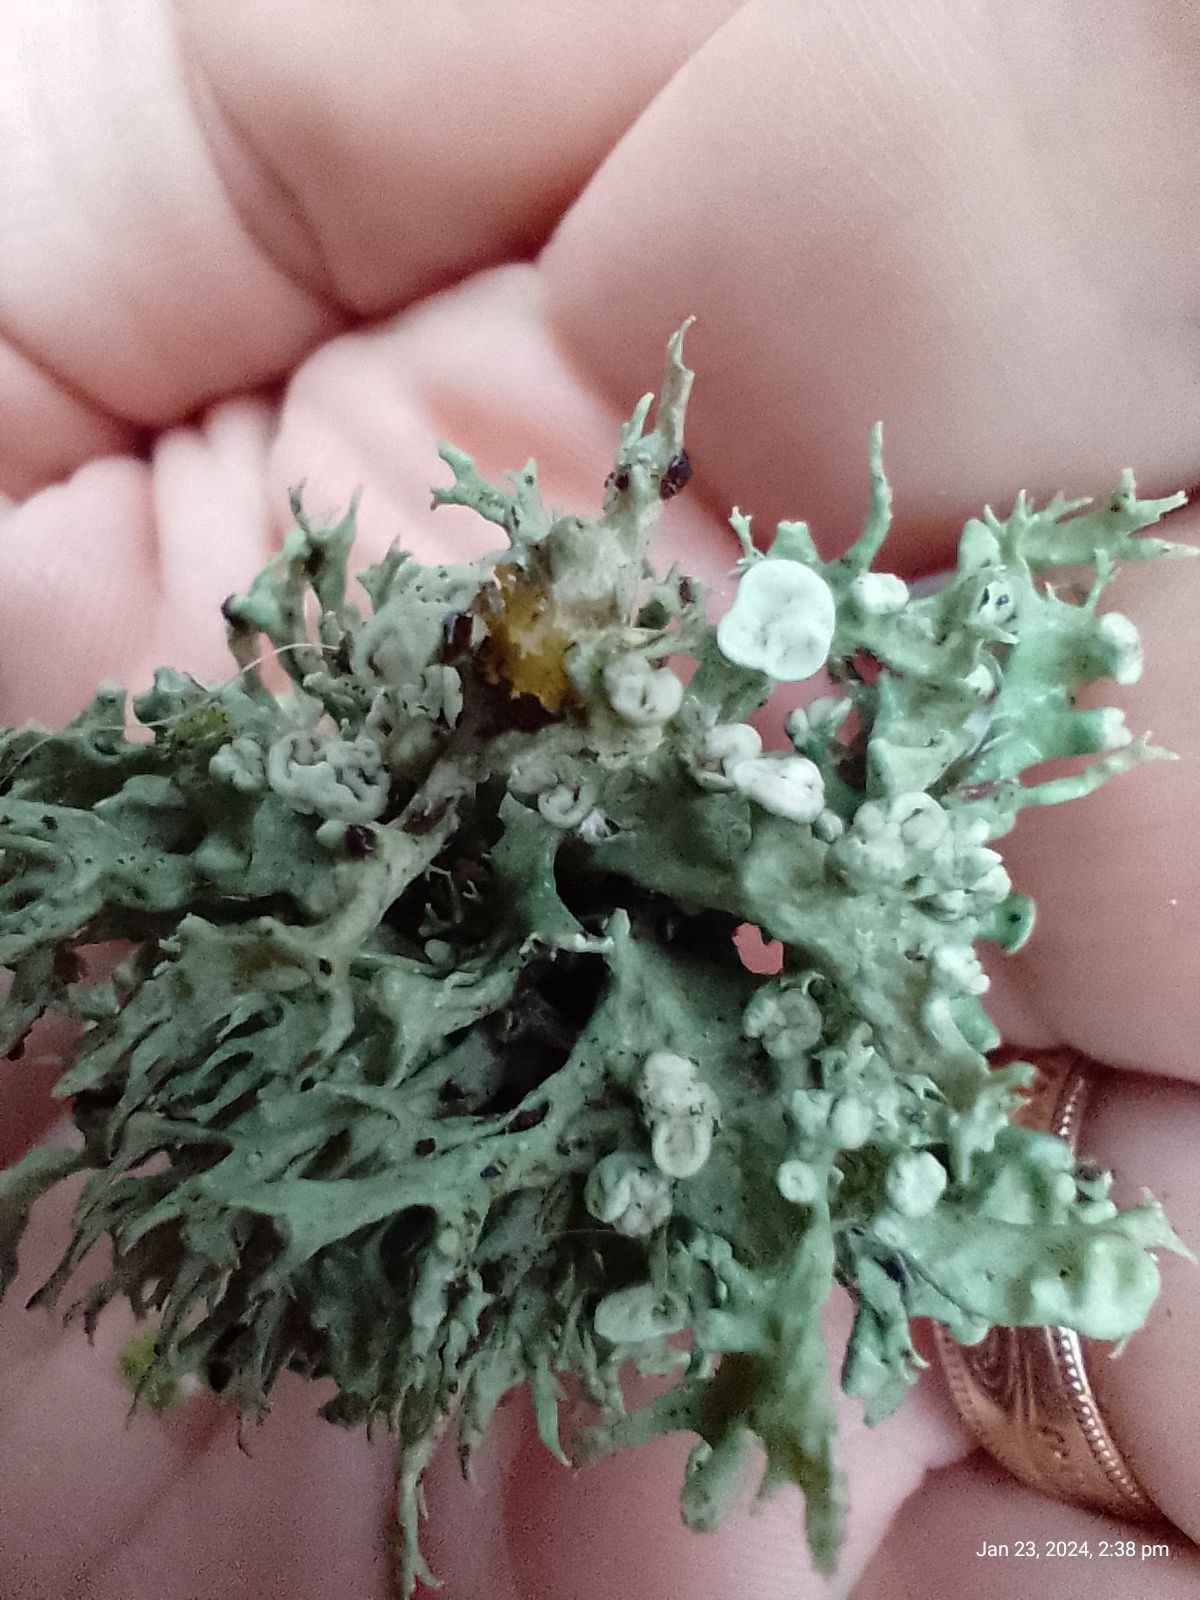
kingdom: Fungi
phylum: Ascomycota
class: Lecanoromycetes
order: Lecanorales
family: Ramalinaceae
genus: Ramalina
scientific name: Ramalina fastigiata
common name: Dotted ribbon lichen
